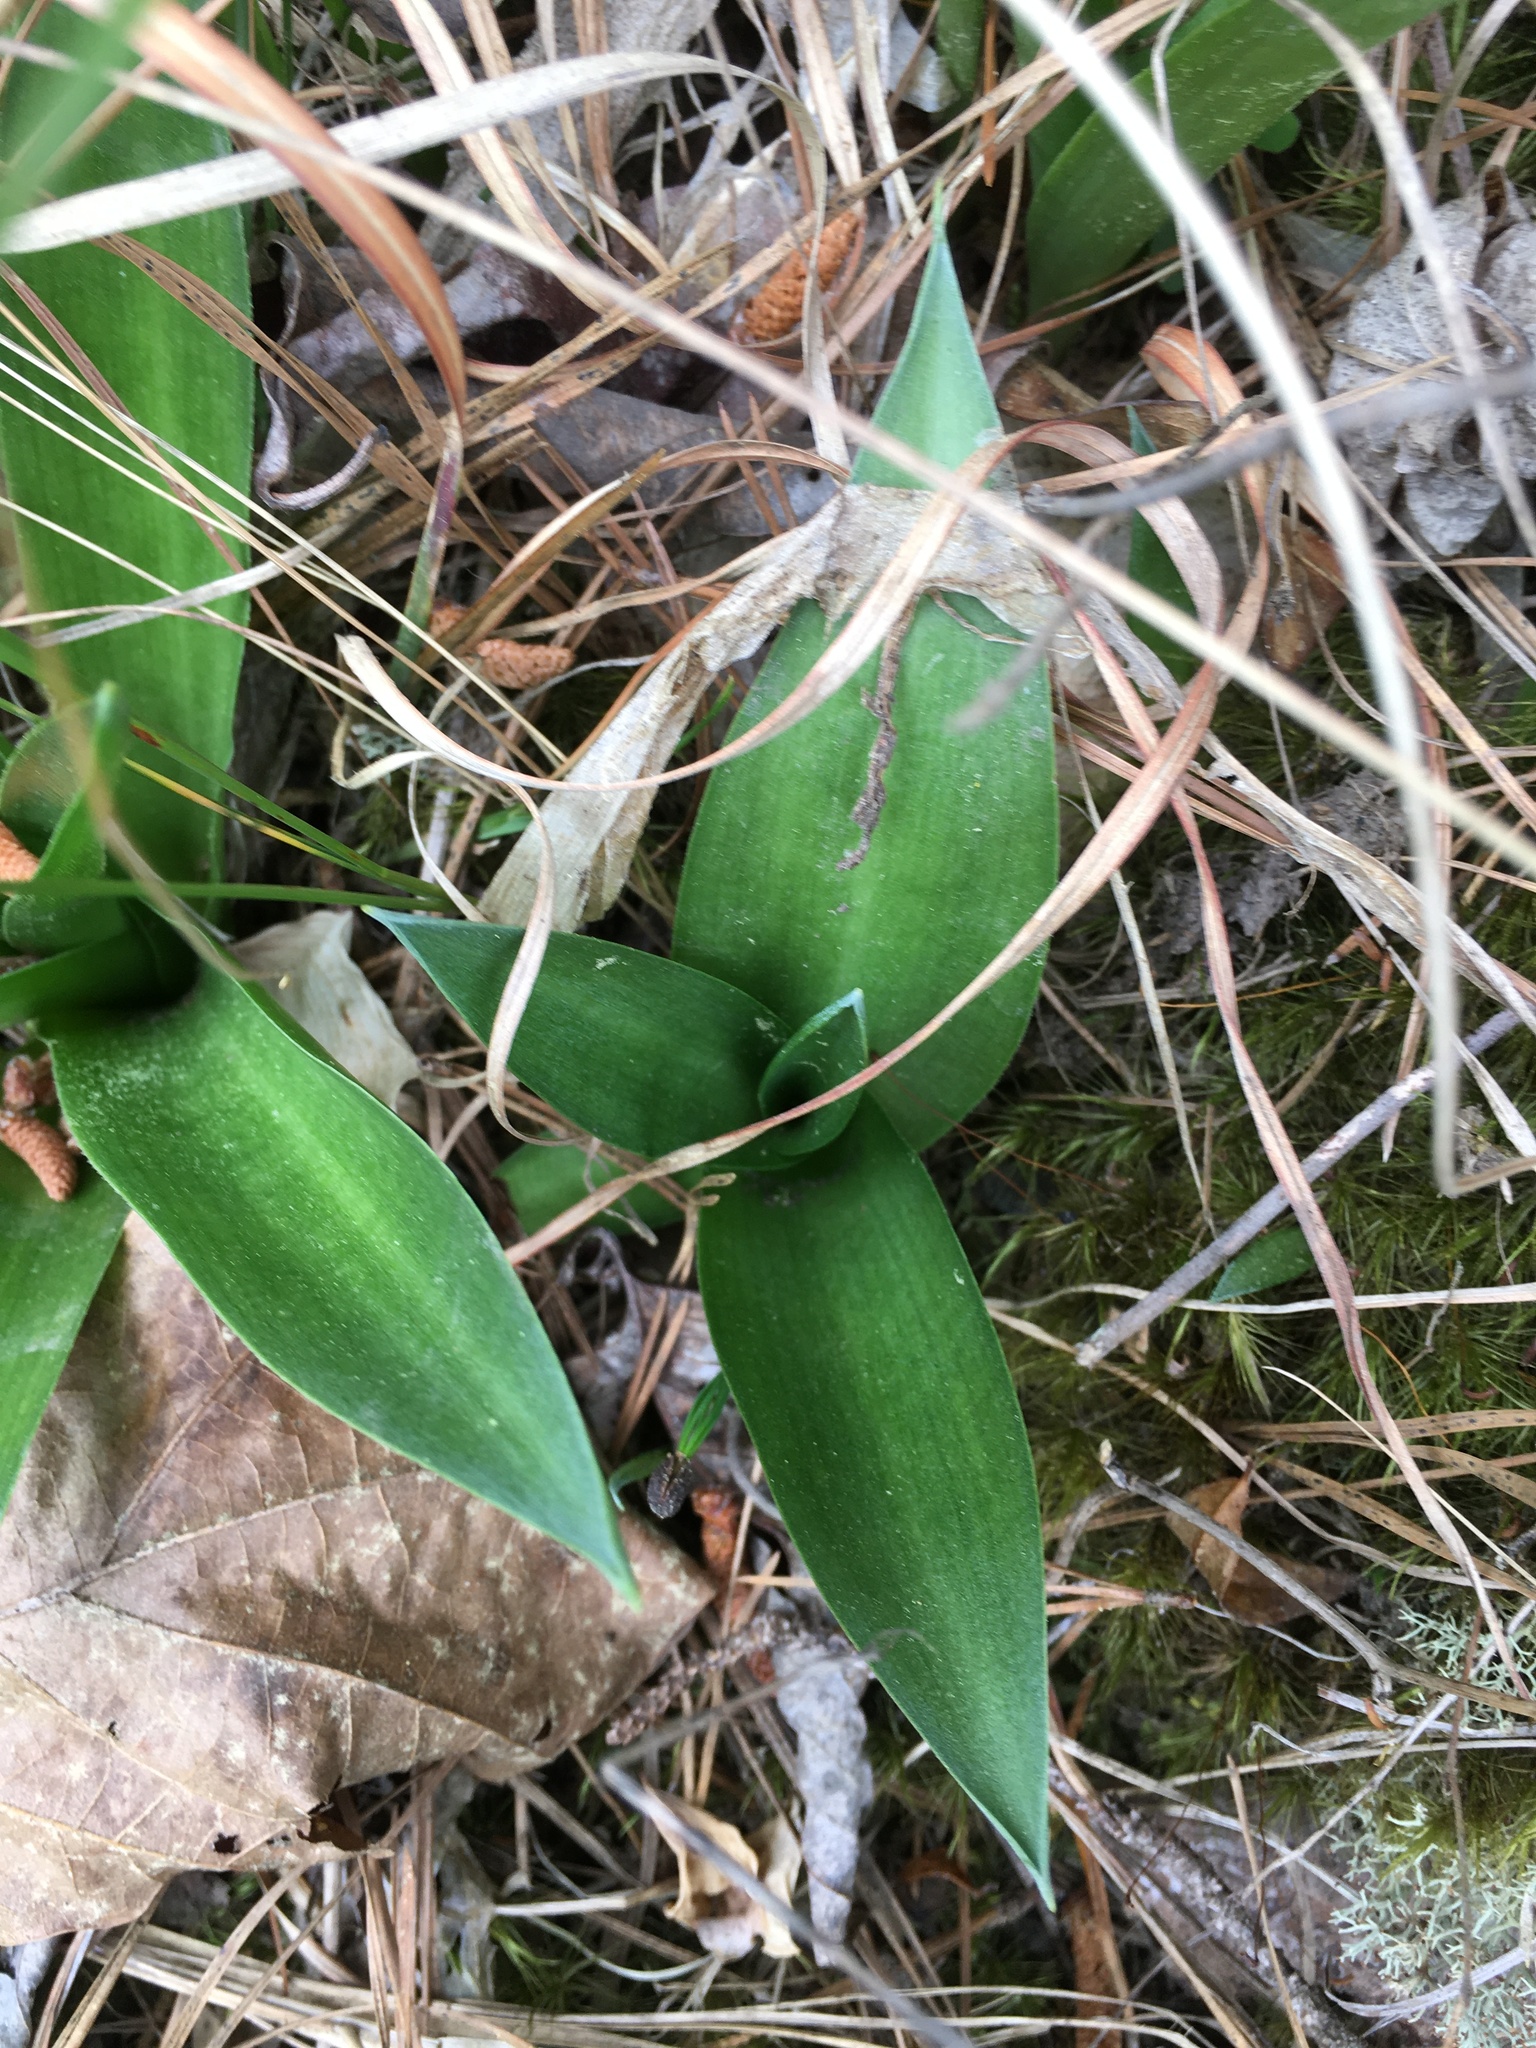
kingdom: Plantae
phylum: Tracheophyta
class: Liliopsida
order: Asparagales
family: Asparagaceae
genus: Agave
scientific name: Agave virginica
